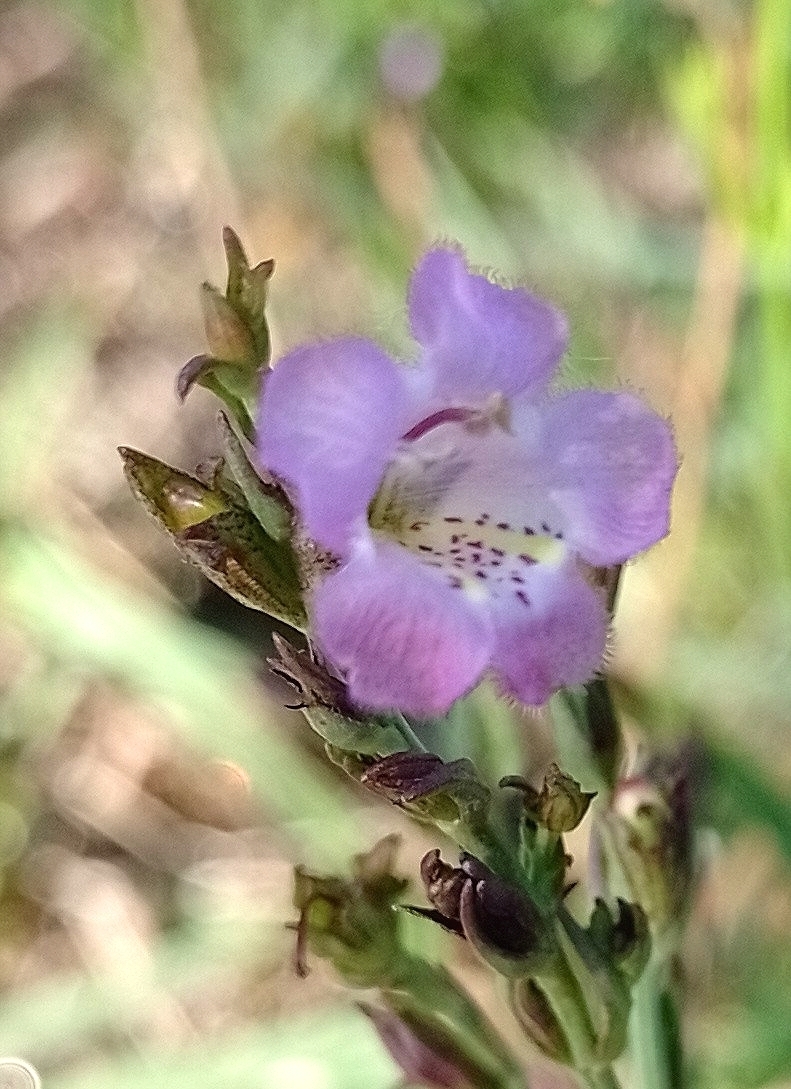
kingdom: Plantae
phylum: Tracheophyta
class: Magnoliopsida
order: Lamiales
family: Orobanchaceae
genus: Agalinis
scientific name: Agalinis communis
